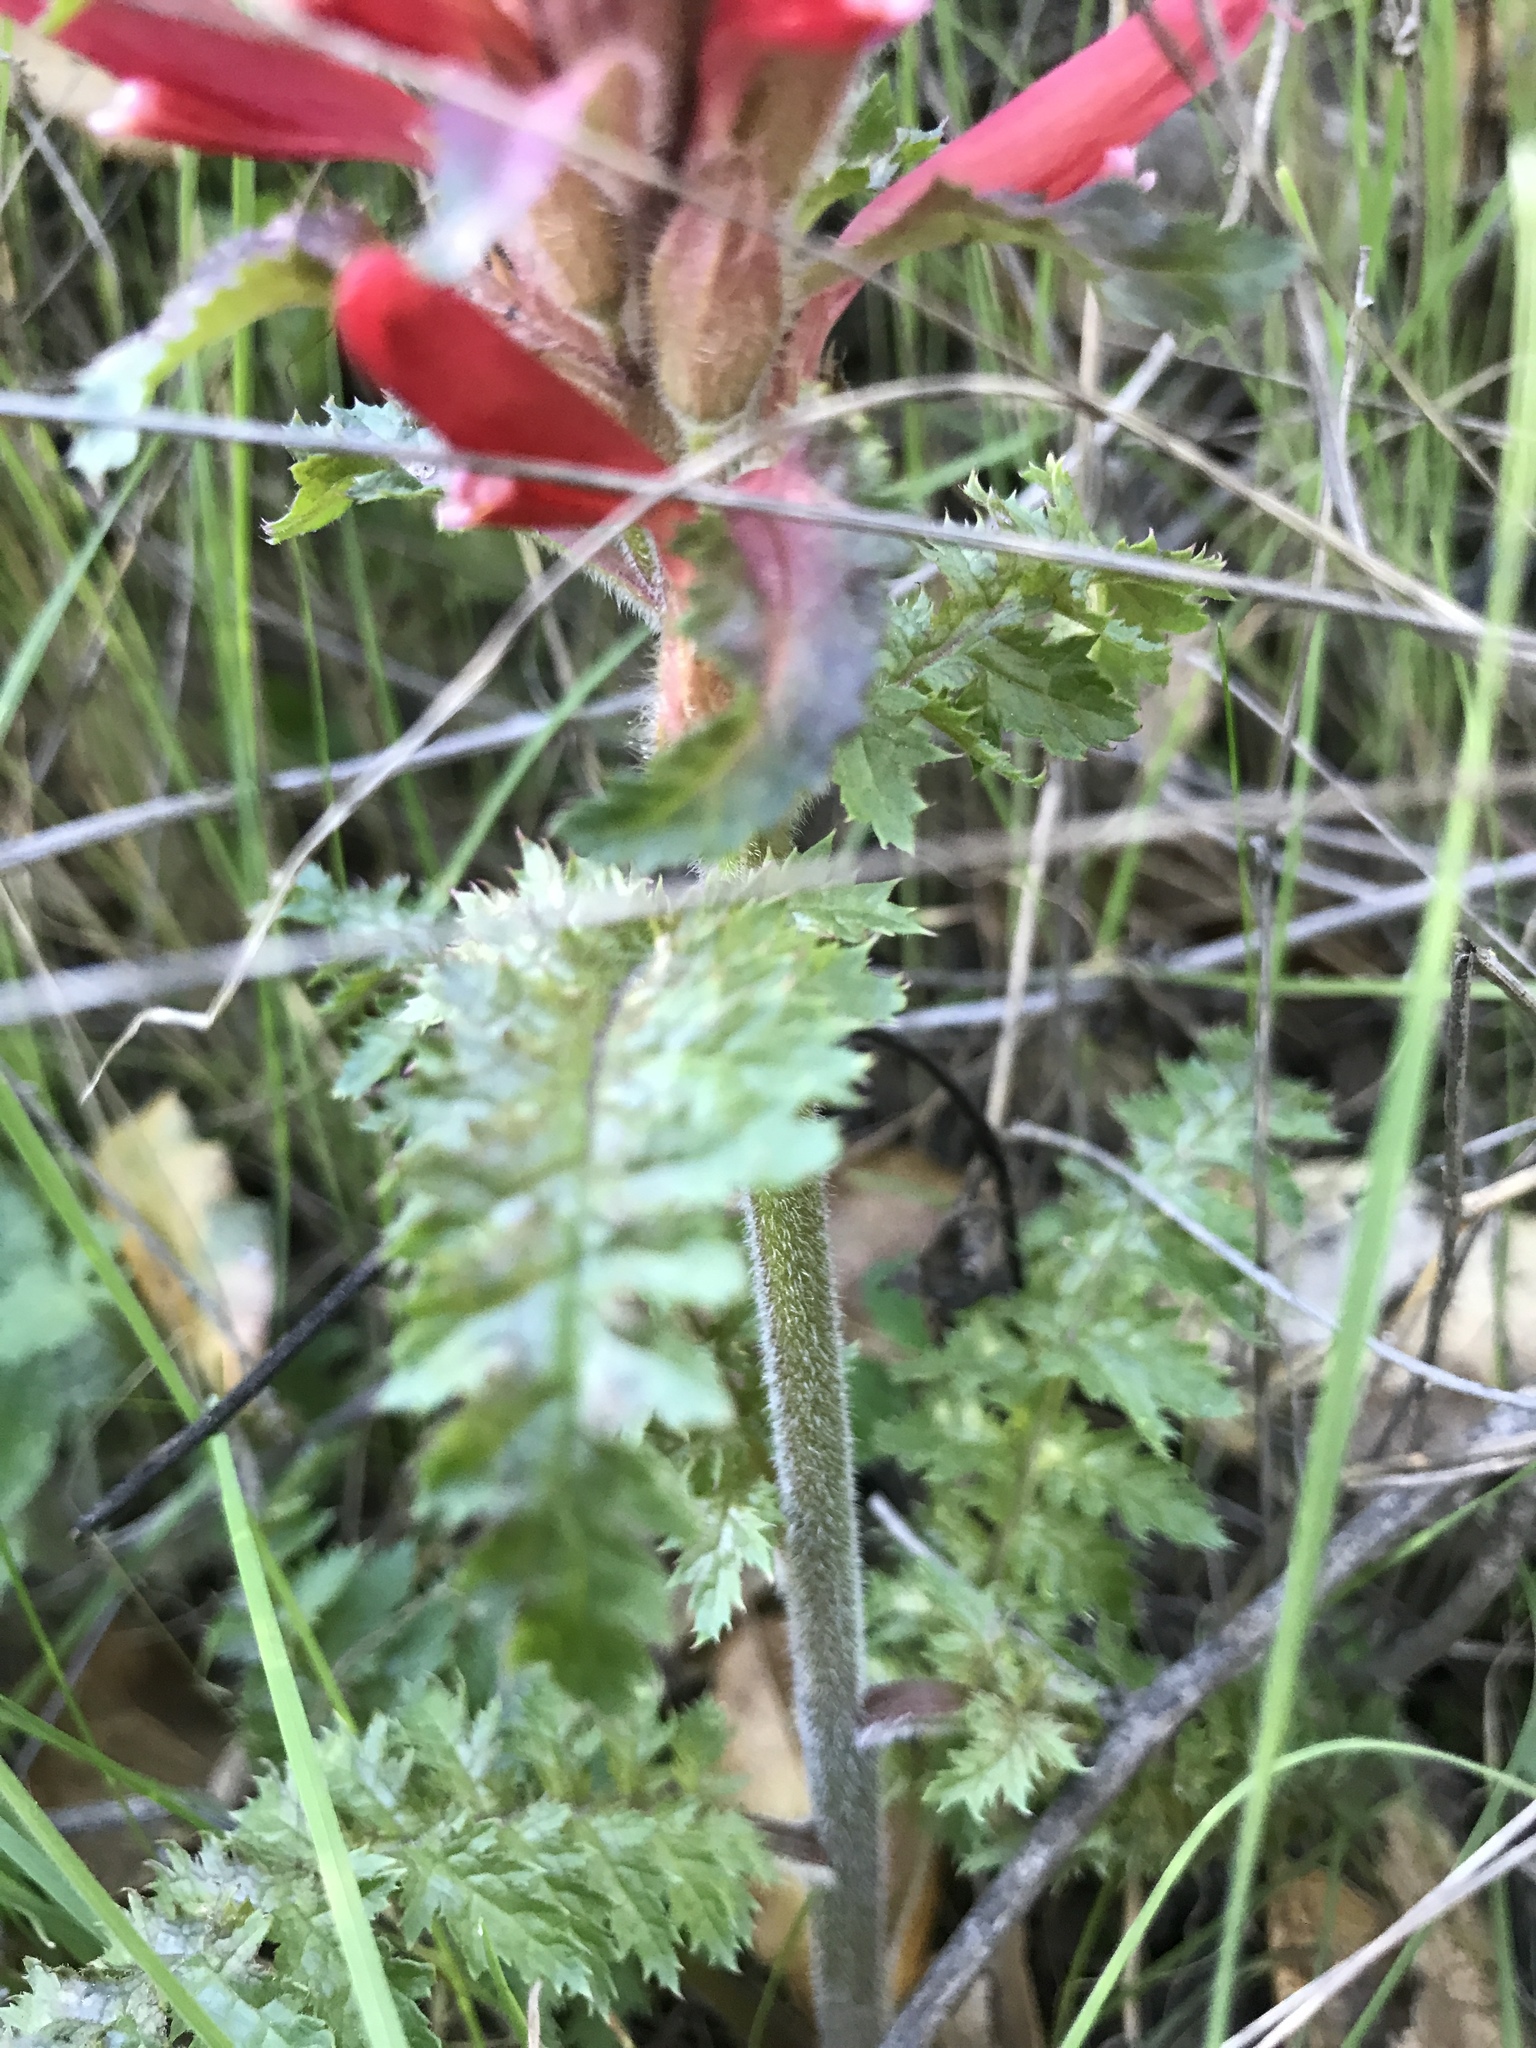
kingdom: Plantae
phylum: Tracheophyta
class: Magnoliopsida
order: Lamiales
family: Orobanchaceae
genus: Pedicularis
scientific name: Pedicularis densiflora
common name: Indian warrior
